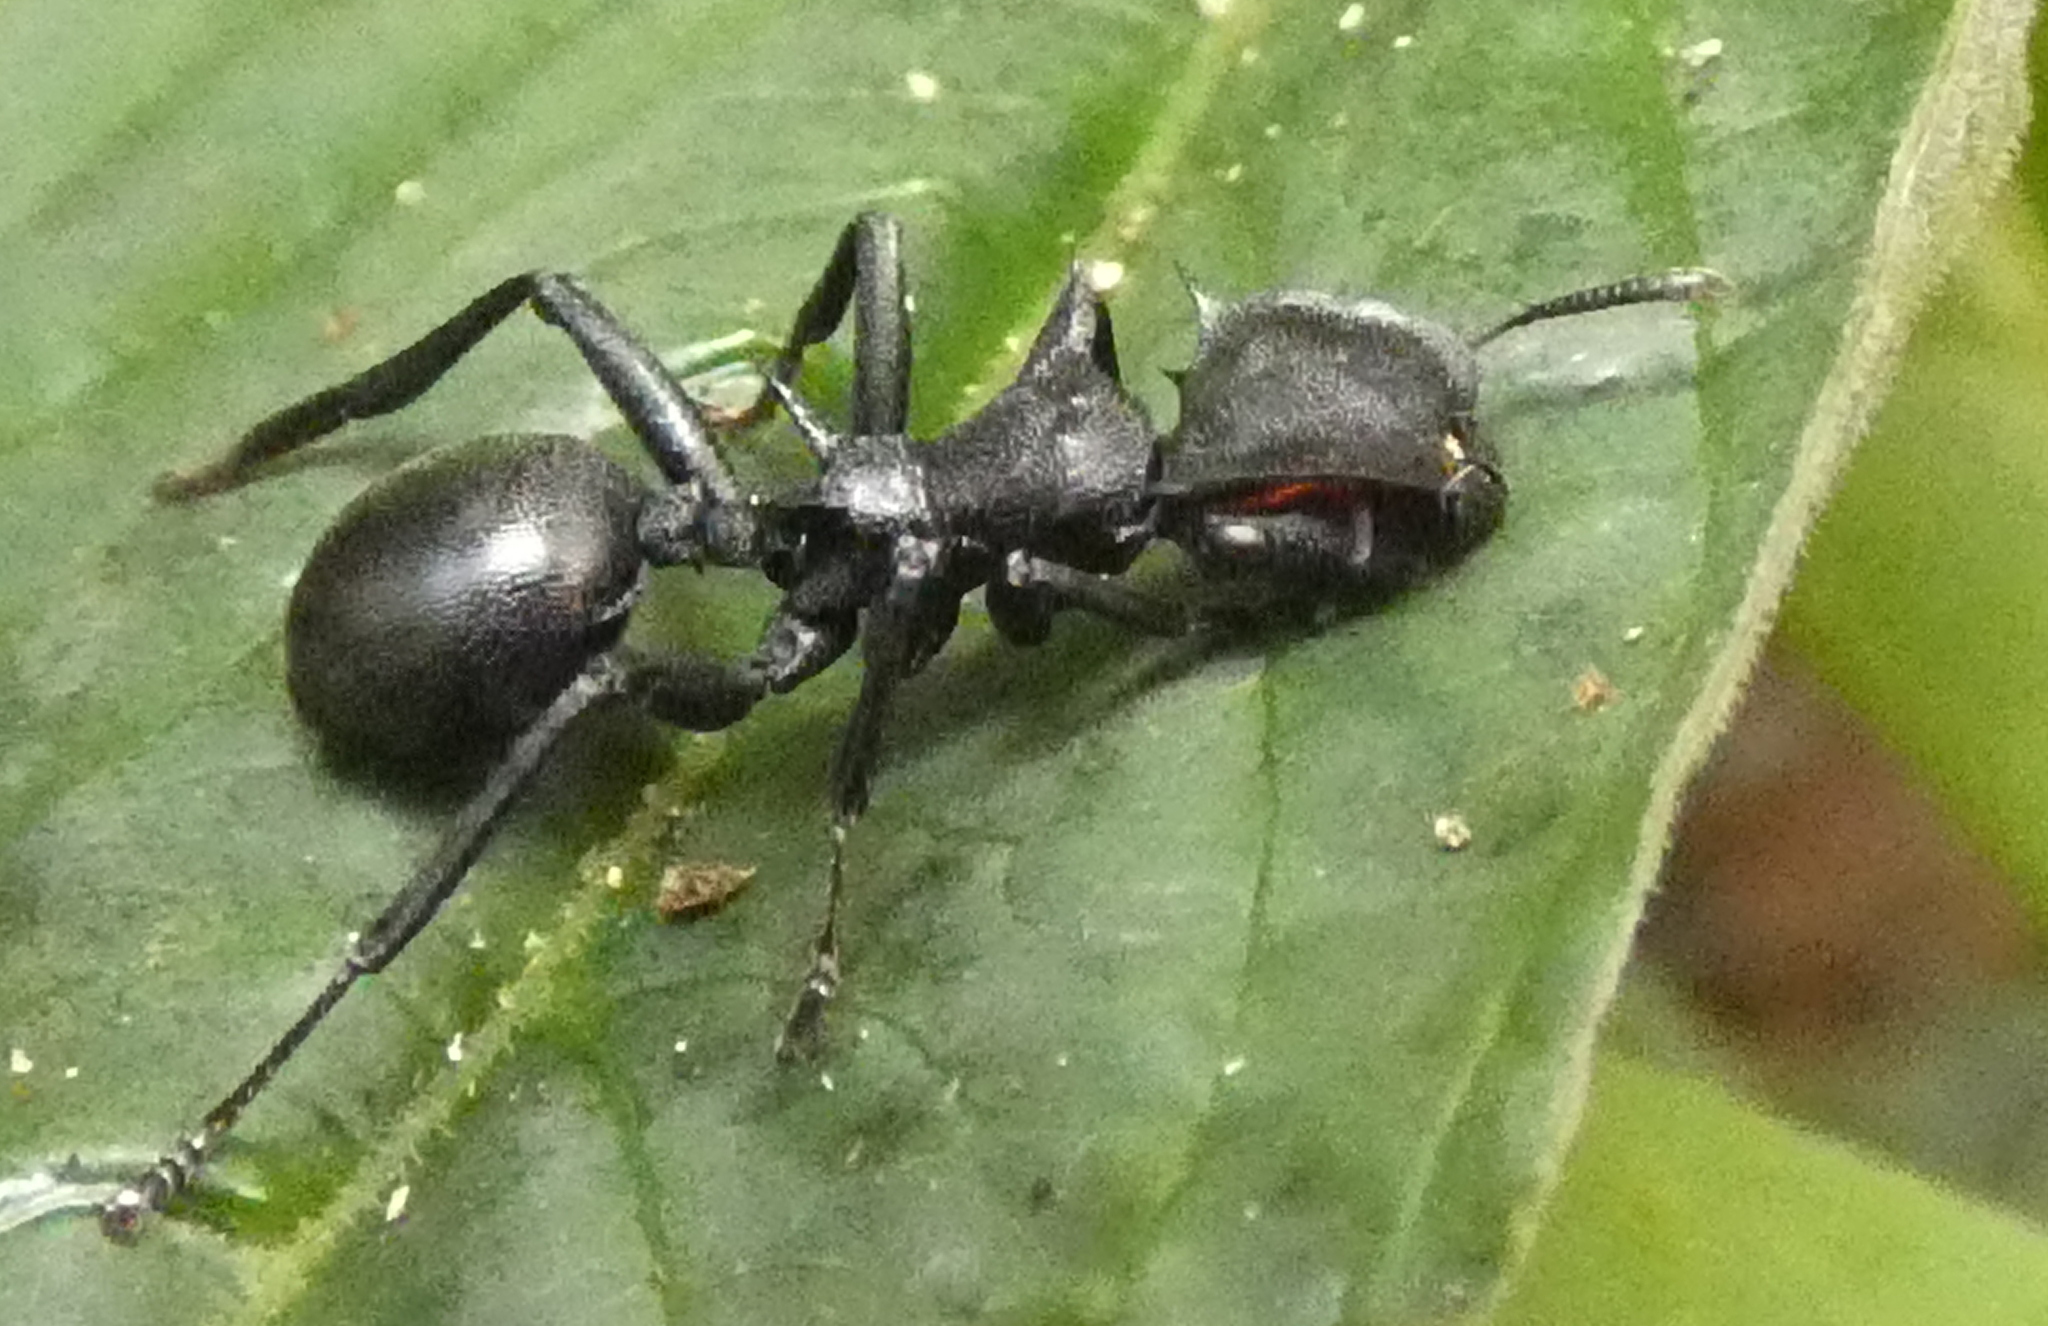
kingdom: Animalia
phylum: Arthropoda
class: Insecta
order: Hymenoptera
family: Formicidae
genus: Cephalotes
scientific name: Cephalotes atratus
